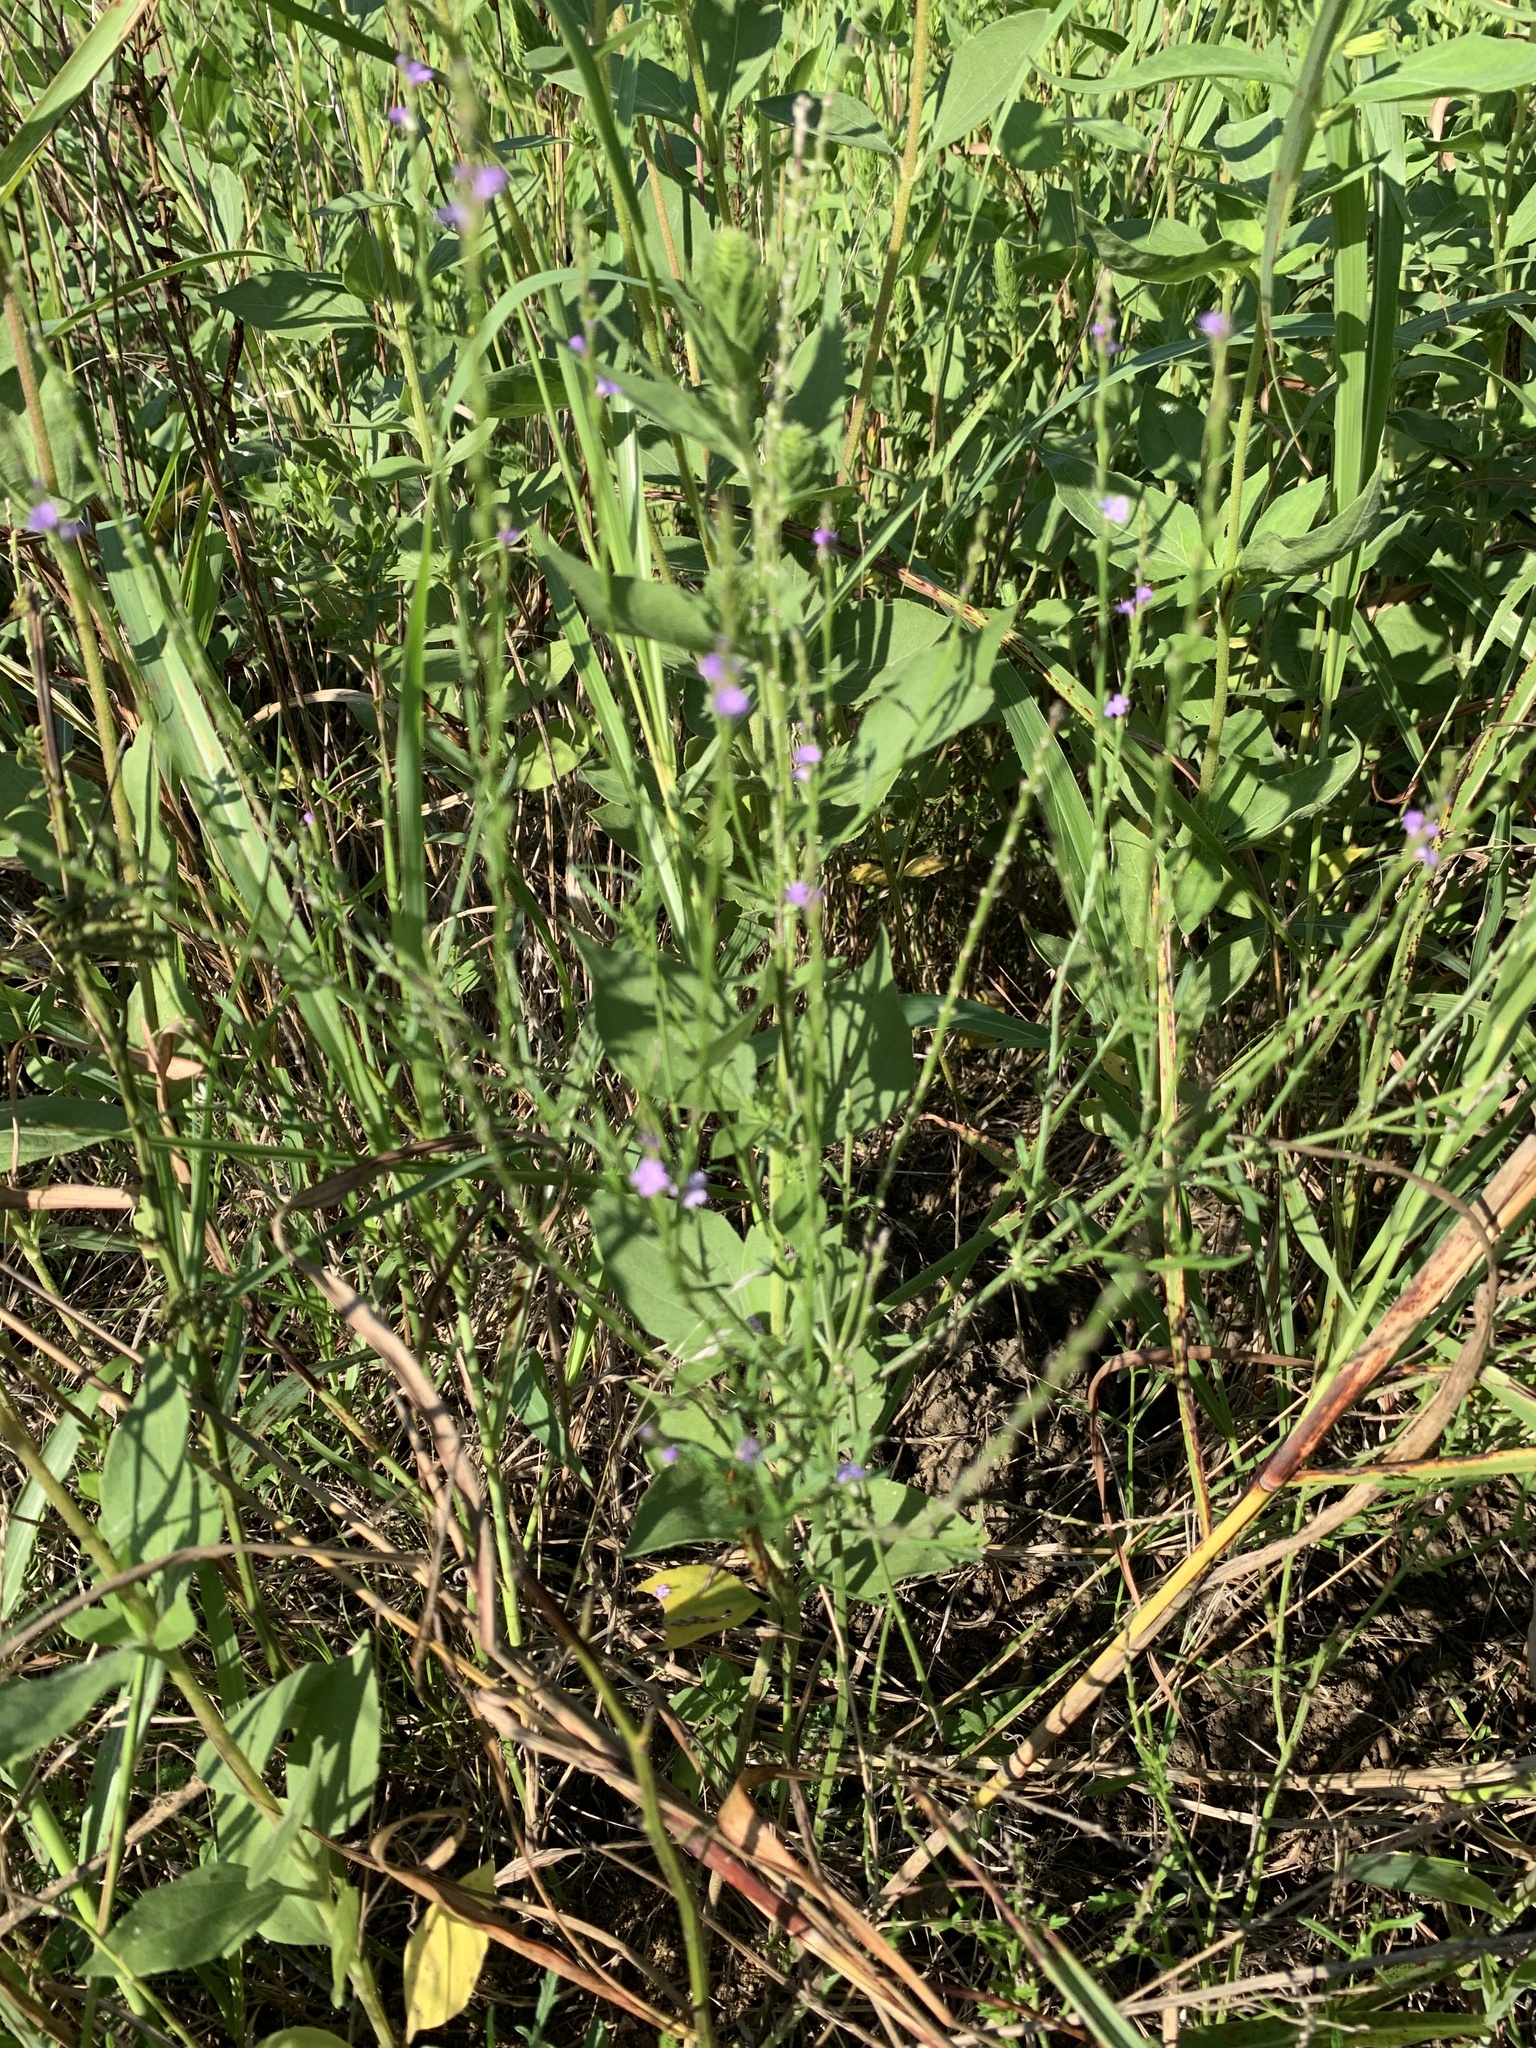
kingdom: Plantae
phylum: Tracheophyta
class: Magnoliopsida
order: Lamiales
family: Verbenaceae
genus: Verbena
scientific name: Verbena halei
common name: Texas vervain
